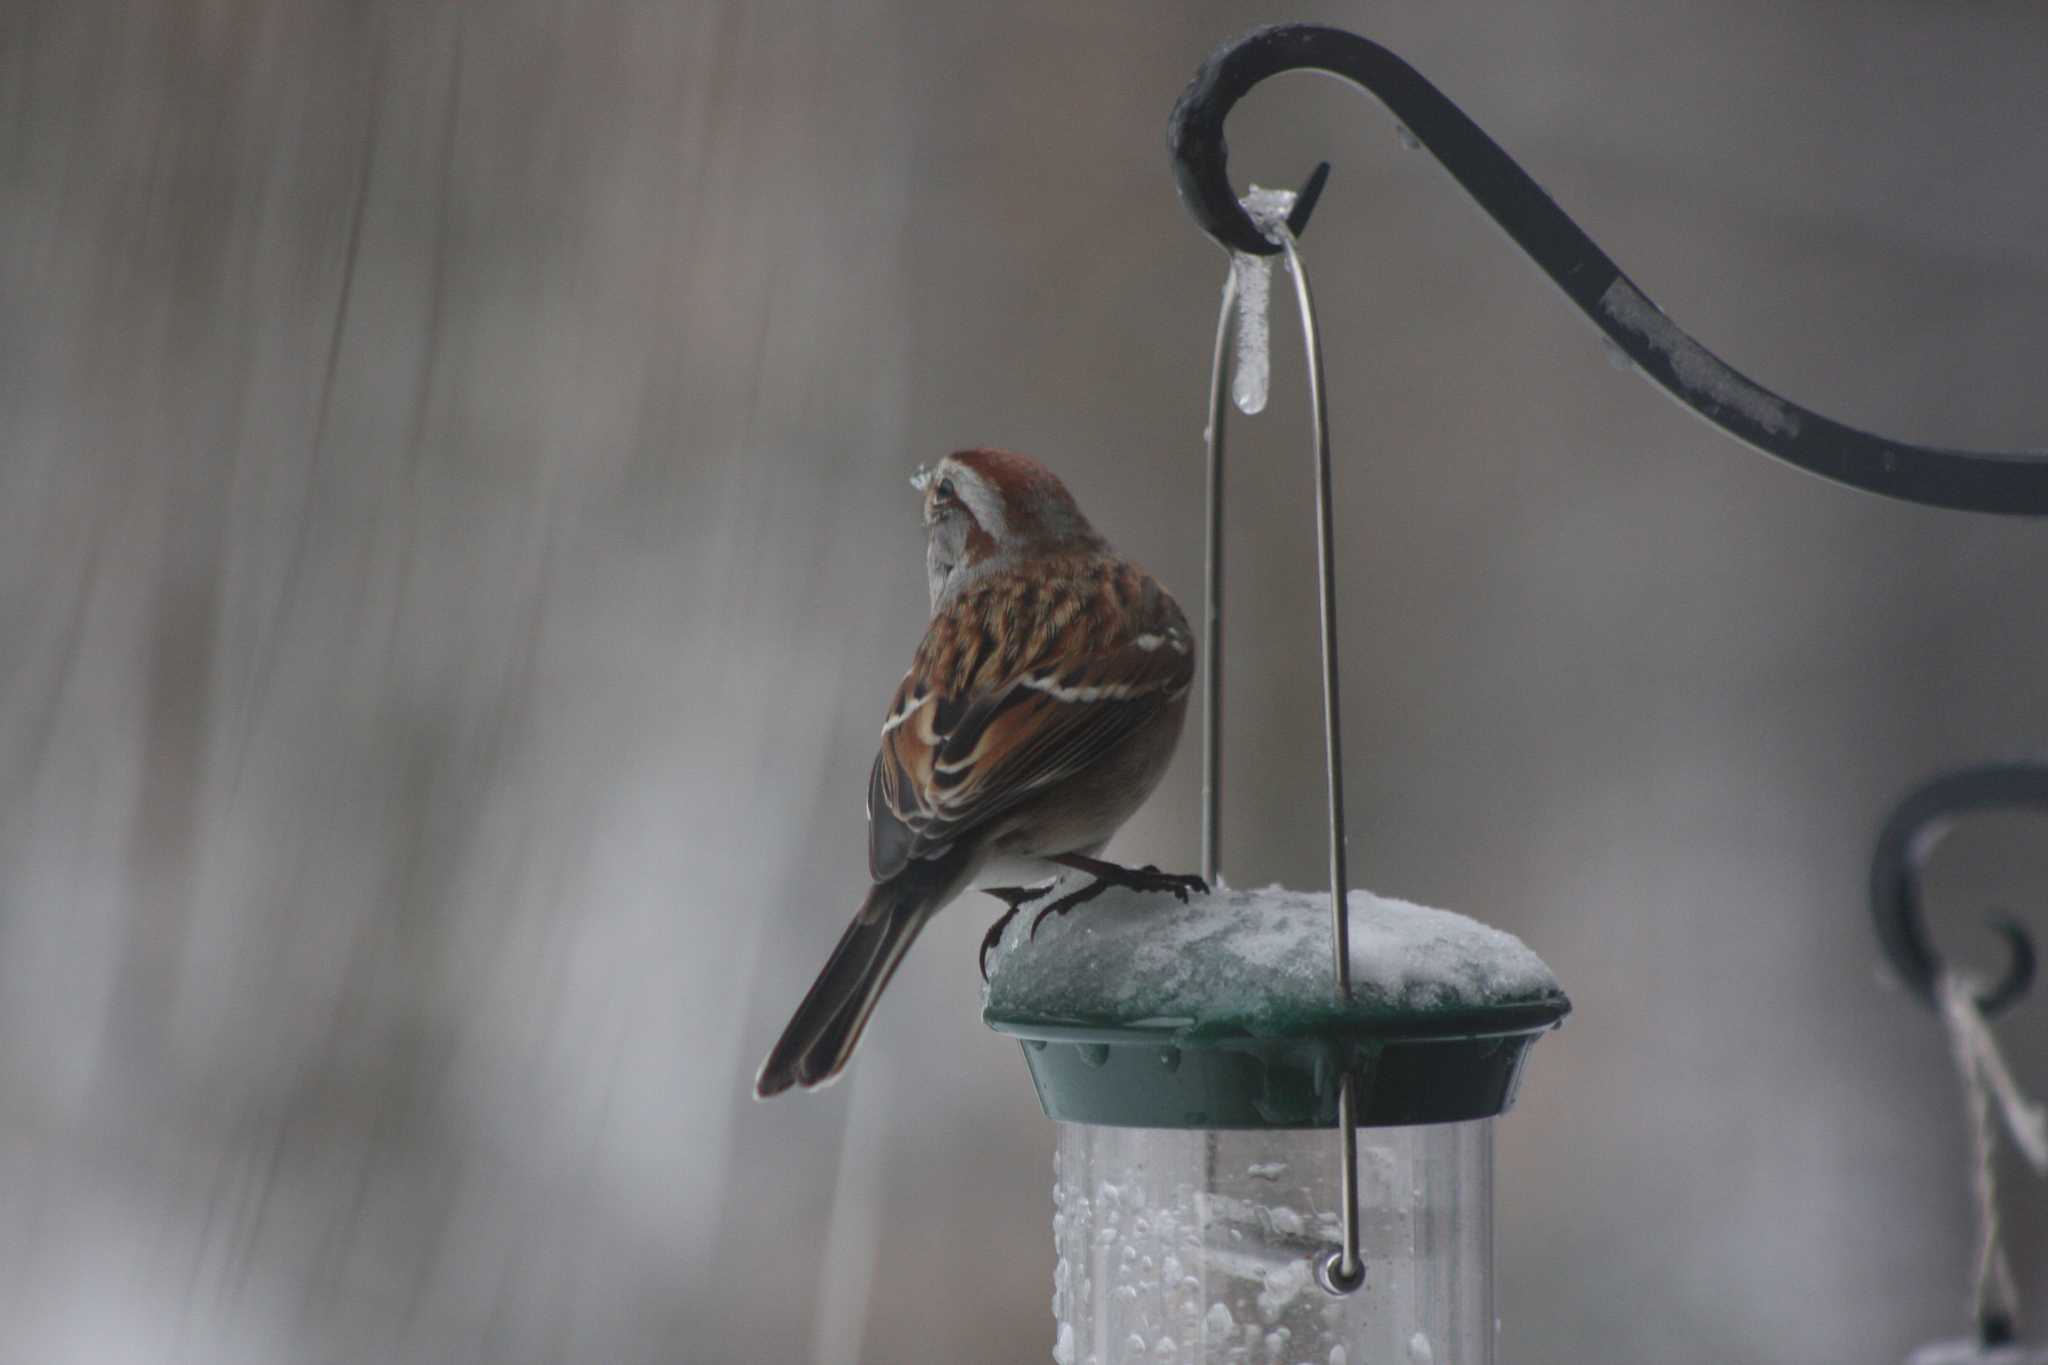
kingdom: Animalia
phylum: Chordata
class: Aves
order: Passeriformes
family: Passerellidae
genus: Spizelloides
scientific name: Spizelloides arborea
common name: American tree sparrow
